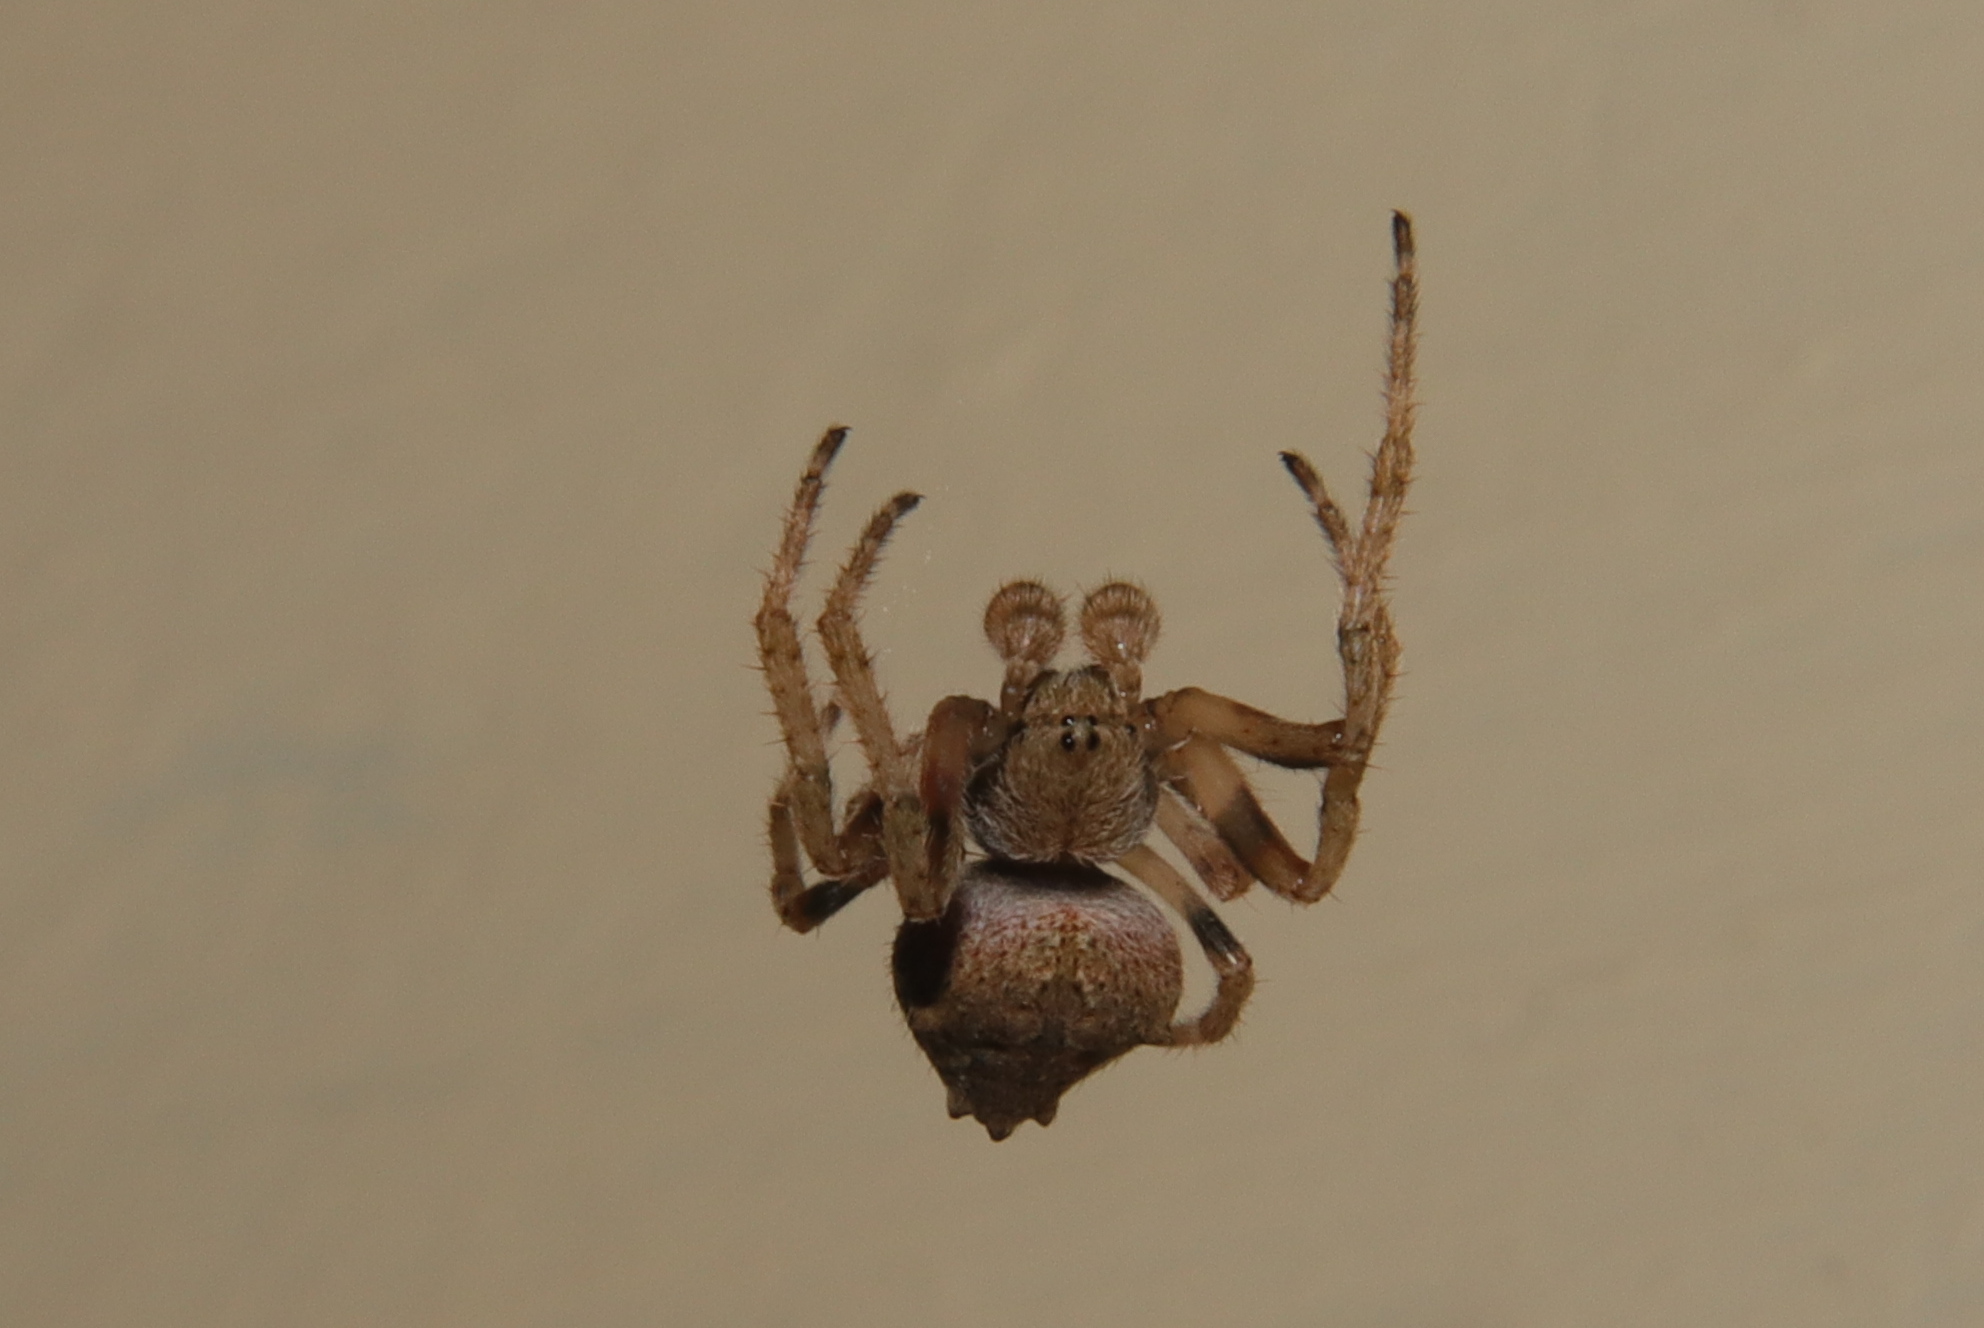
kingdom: Animalia
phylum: Arthropoda
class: Arachnida
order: Araneae
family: Araneidae
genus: Eriophora
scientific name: Eriophora pustulosa
